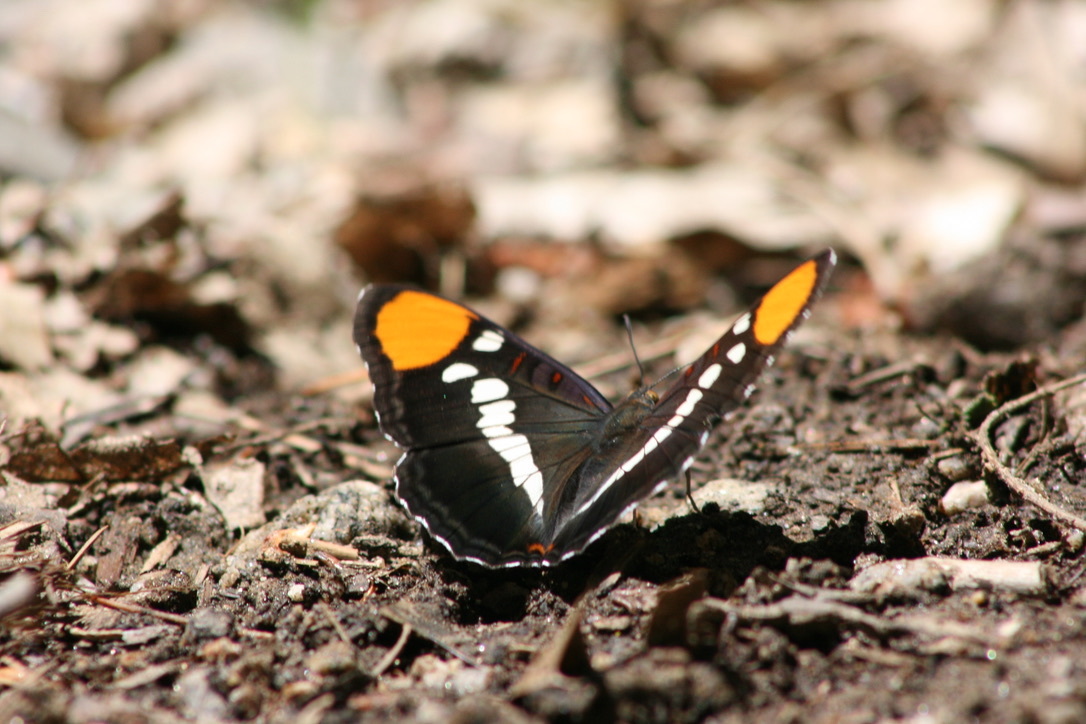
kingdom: Animalia
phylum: Arthropoda
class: Insecta
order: Lepidoptera
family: Nymphalidae
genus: Limenitis
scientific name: Limenitis bredowii
